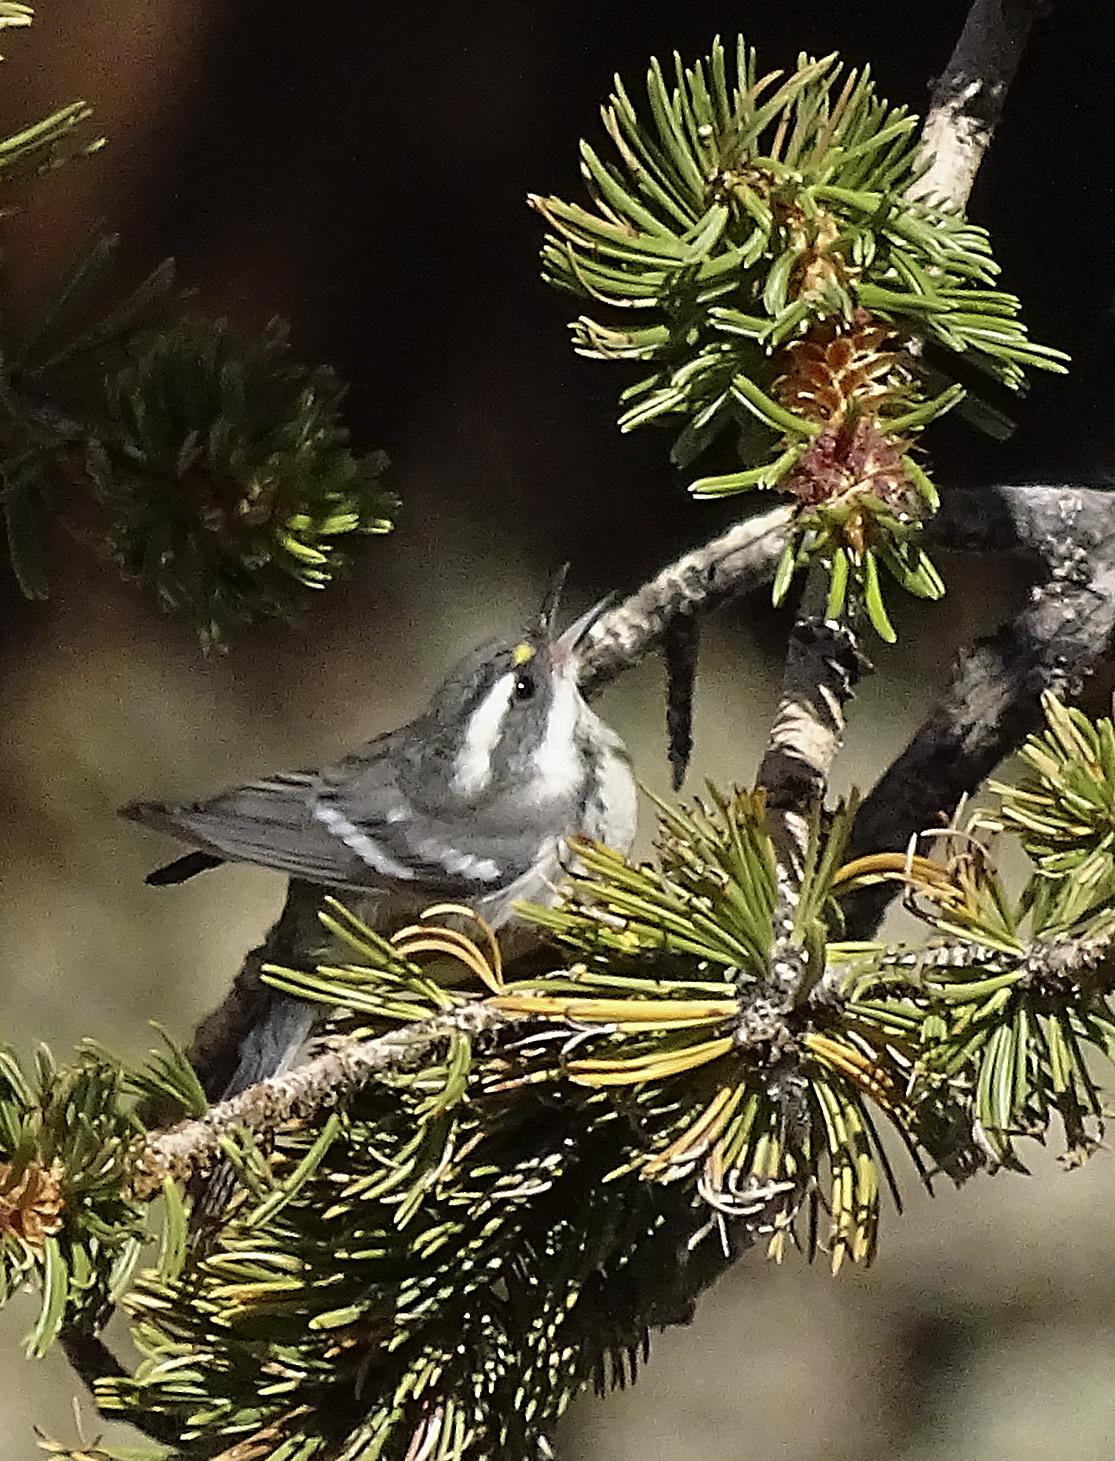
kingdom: Animalia
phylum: Chordata
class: Aves
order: Passeriformes
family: Parulidae
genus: Setophaga
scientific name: Setophaga nigrescens
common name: Black-throated gray warbler
